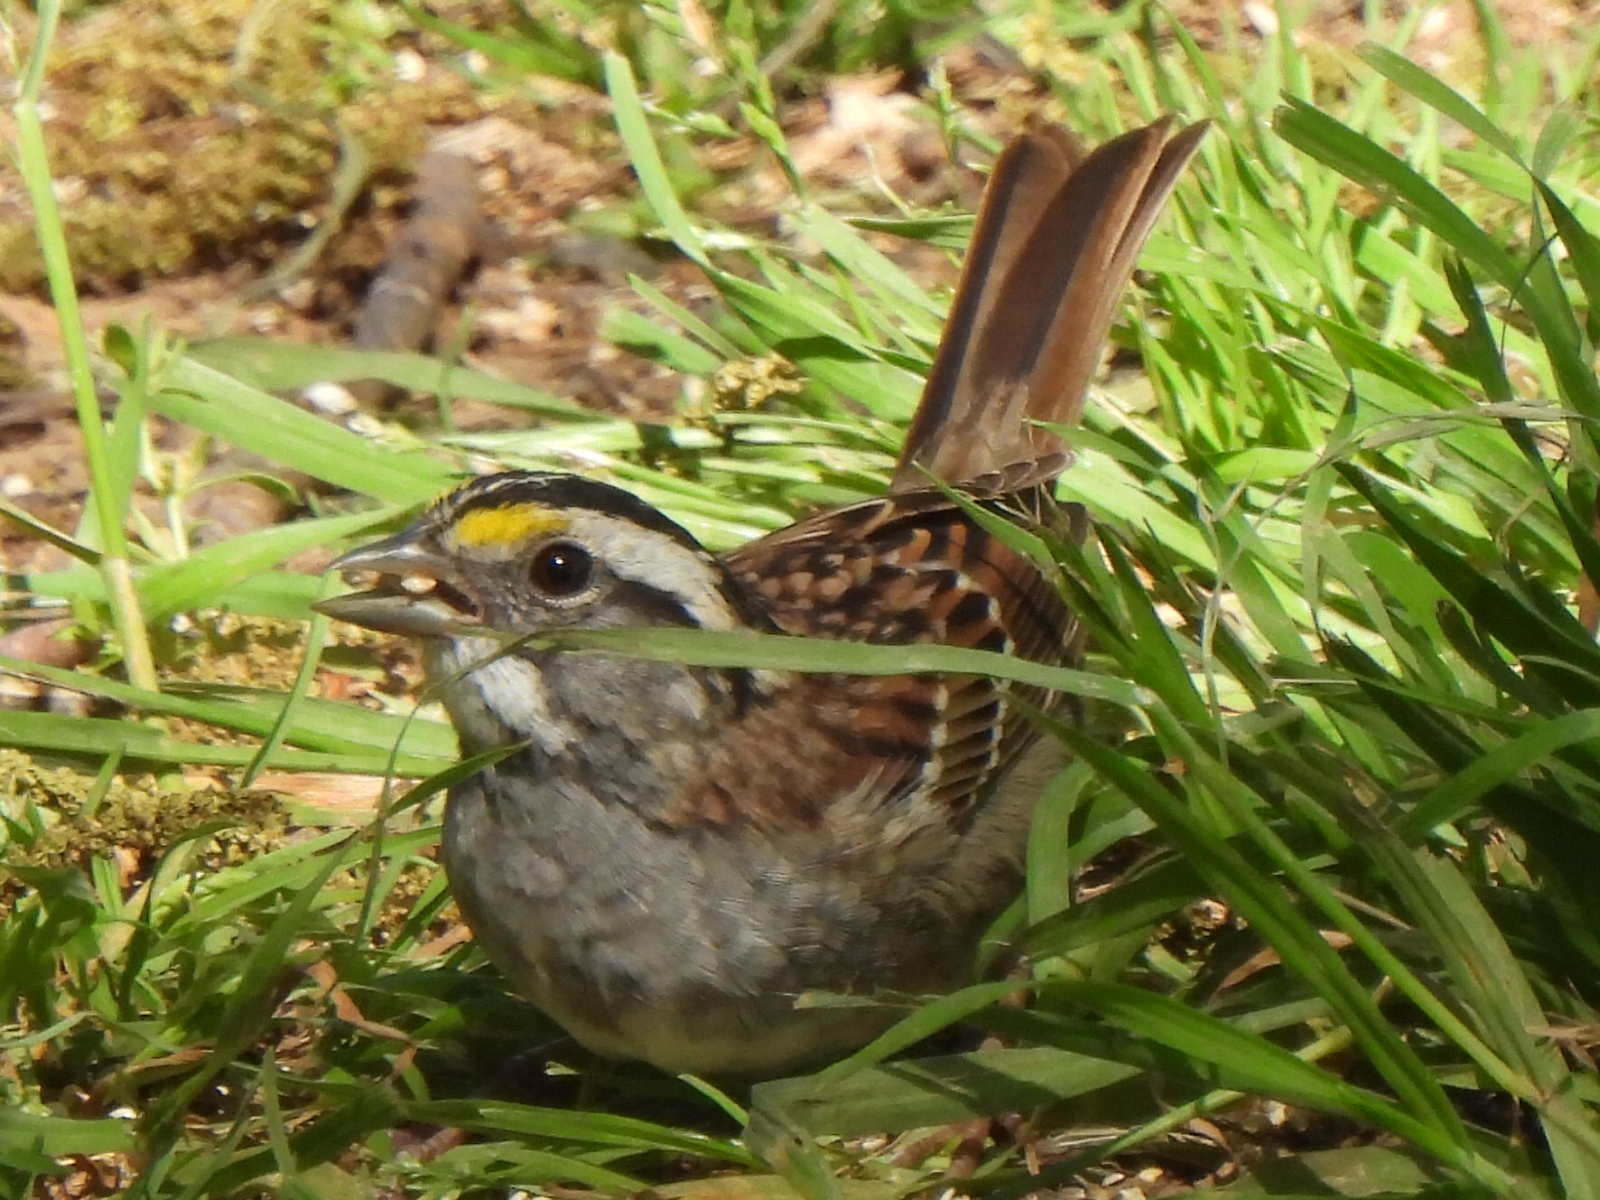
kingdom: Animalia
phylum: Chordata
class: Aves
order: Passeriformes
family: Passerellidae
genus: Zonotrichia
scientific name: Zonotrichia albicollis
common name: White-throated sparrow
